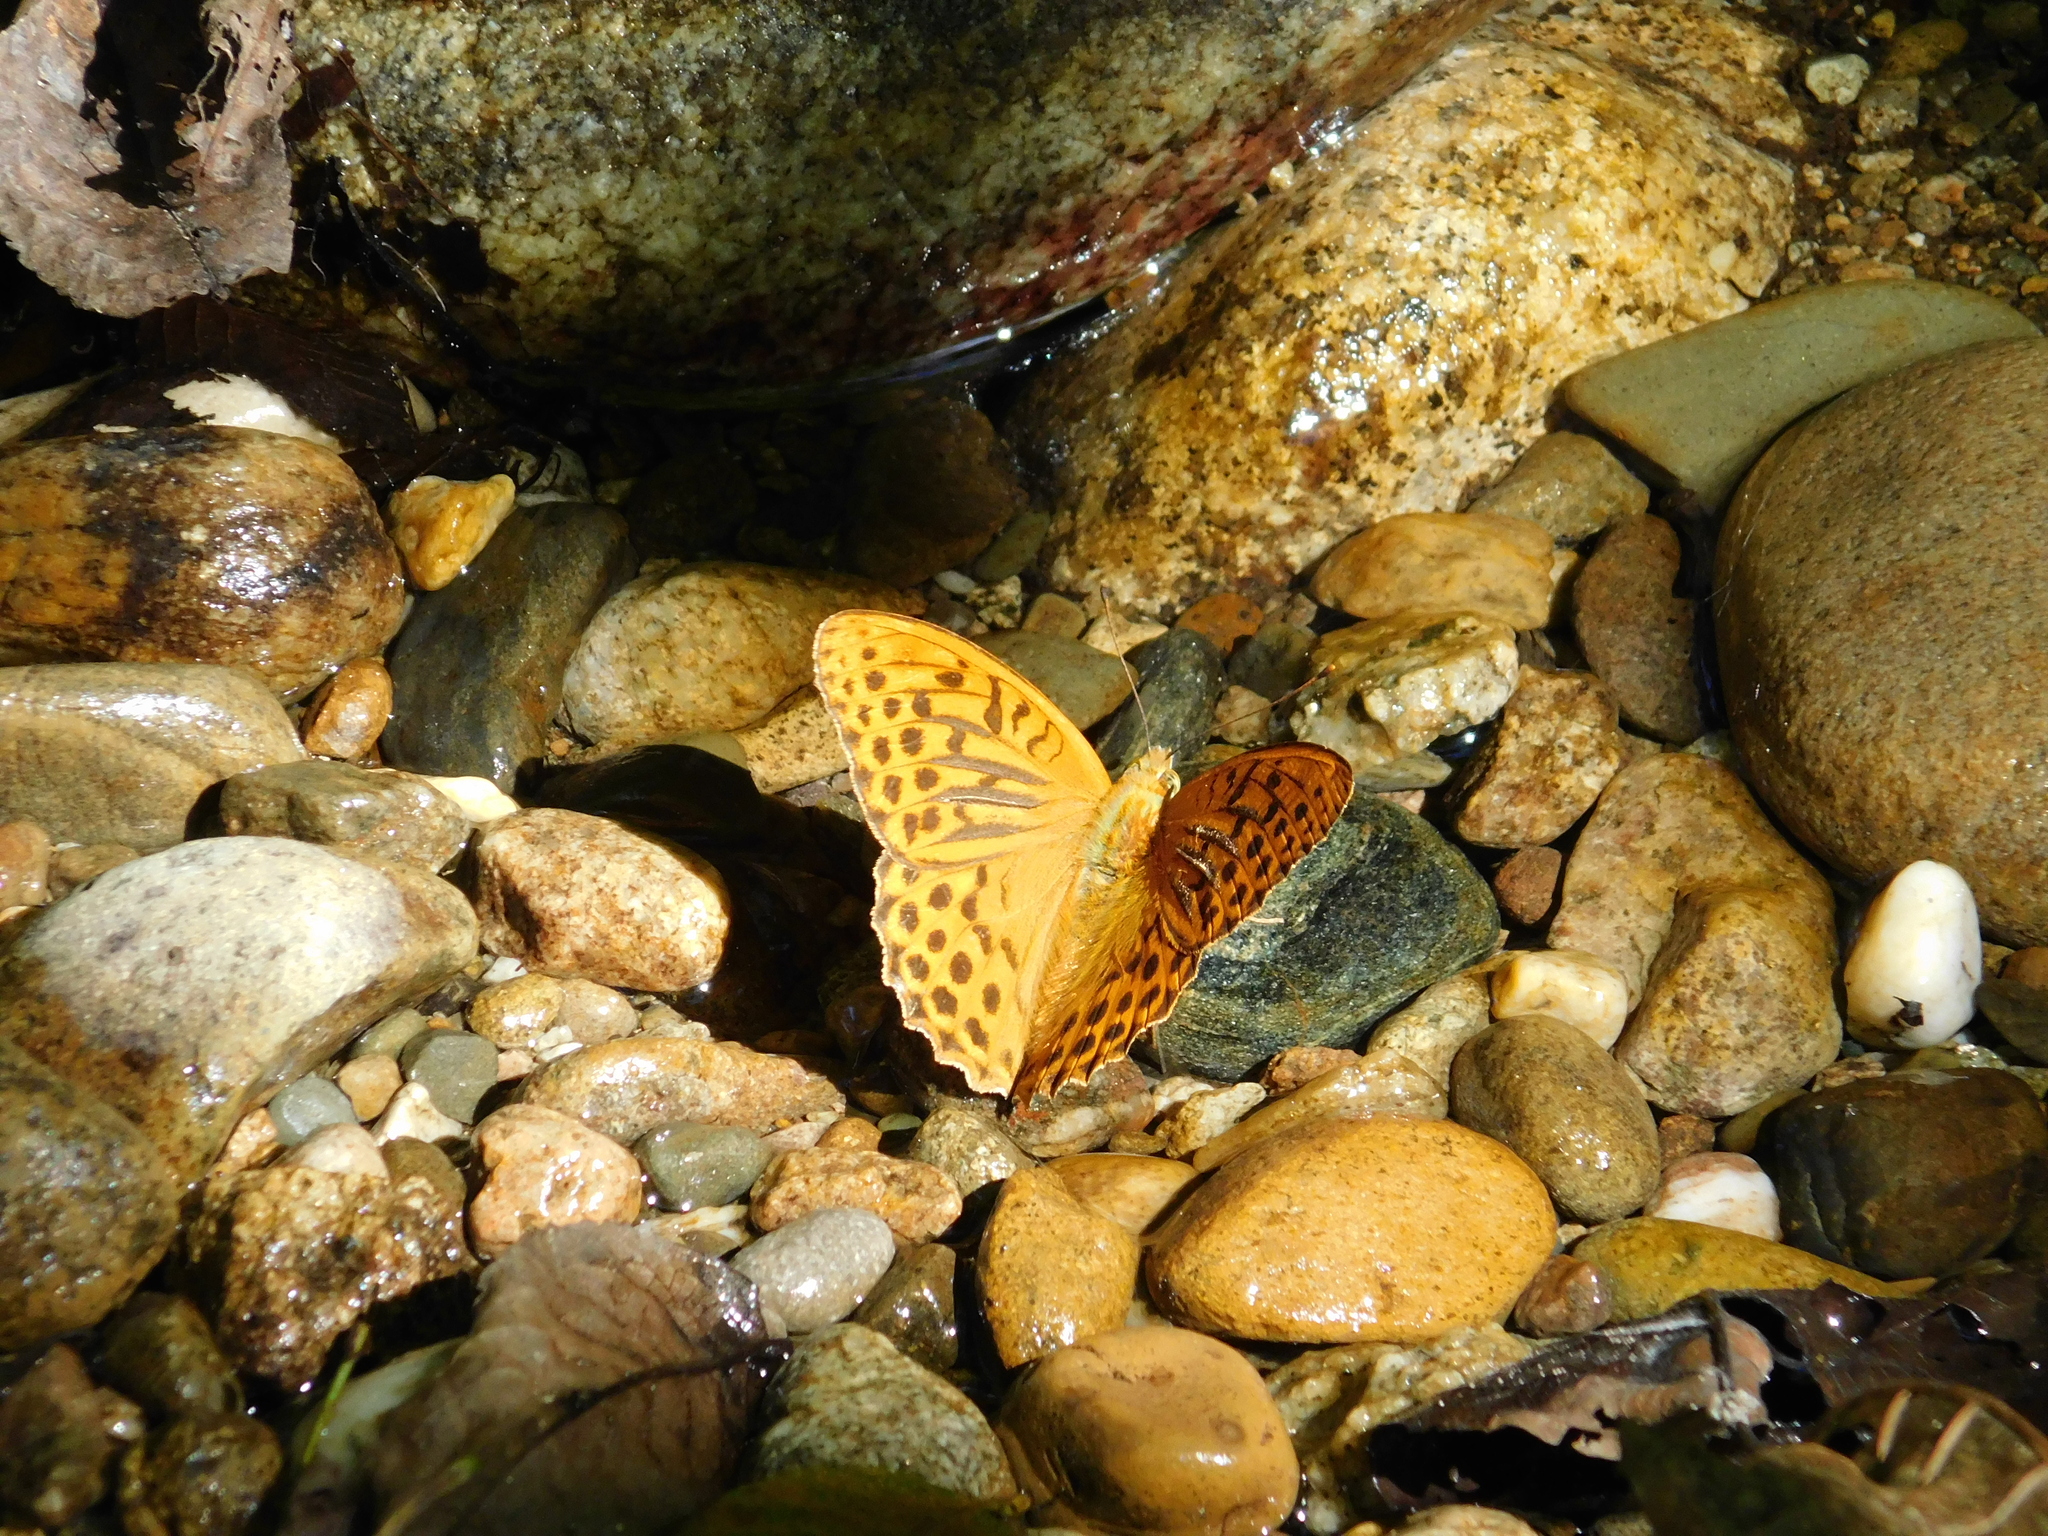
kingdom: Animalia
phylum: Arthropoda
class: Insecta
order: Lepidoptera
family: Nymphalidae
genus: Argynnis
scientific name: Argynnis paphia
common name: Silver-washed fritillary
